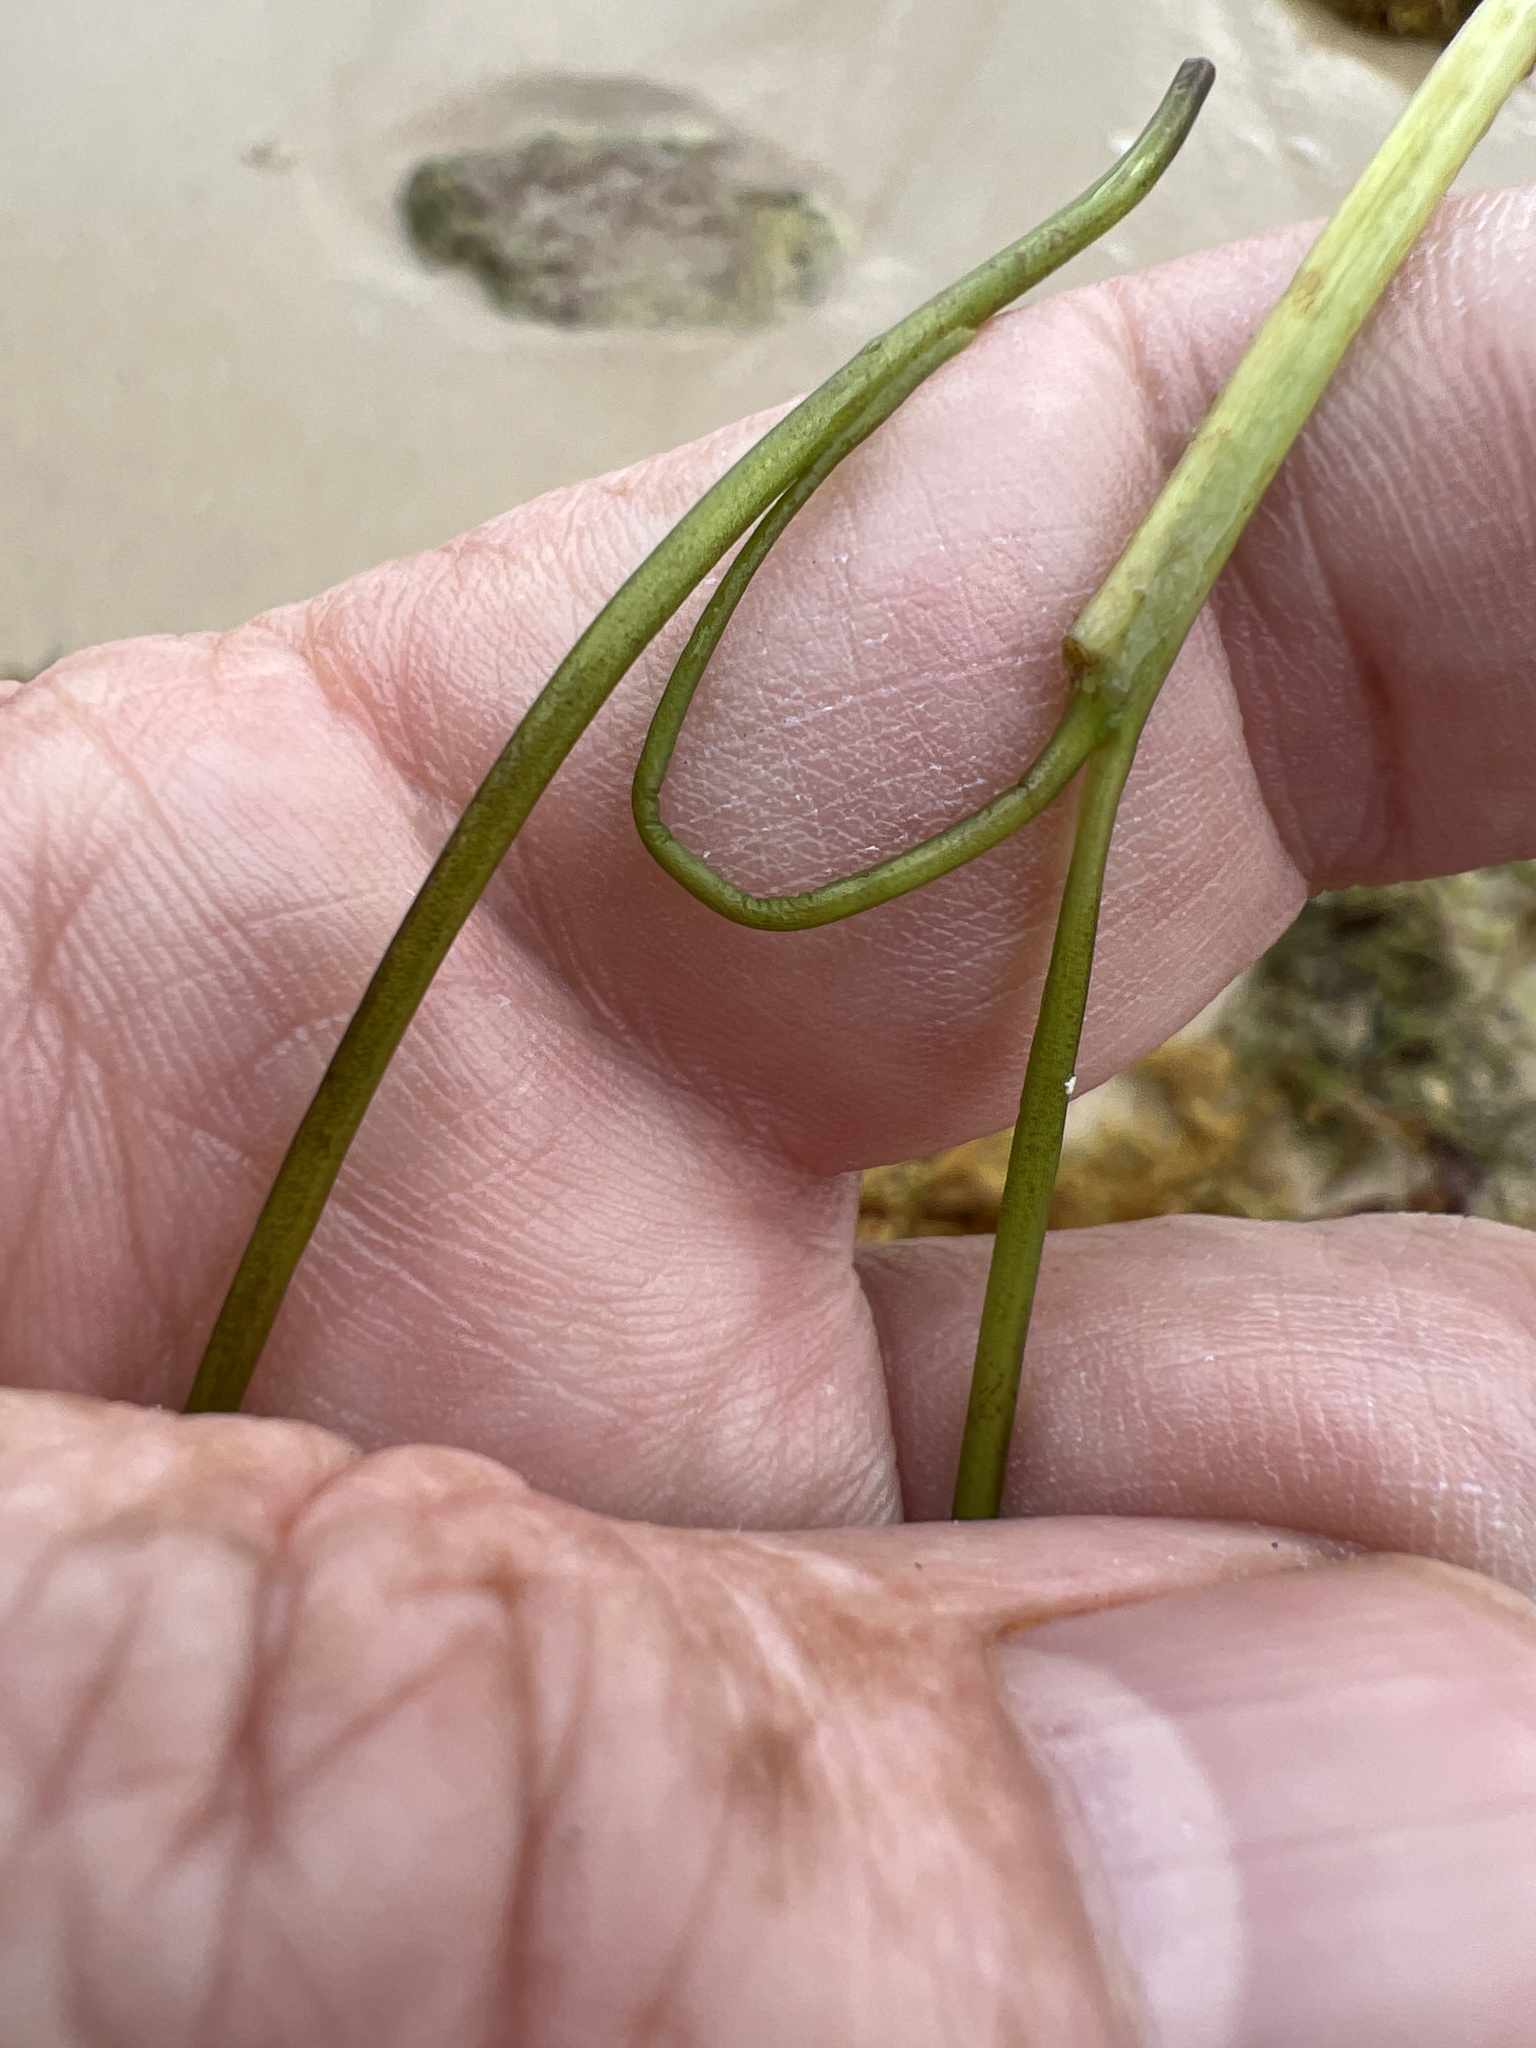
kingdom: Plantae
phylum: Tracheophyta
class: Liliopsida
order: Alismatales
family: Cymodoceaceae
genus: Syringodium
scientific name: Syringodium filiforme
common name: Manatee grass
